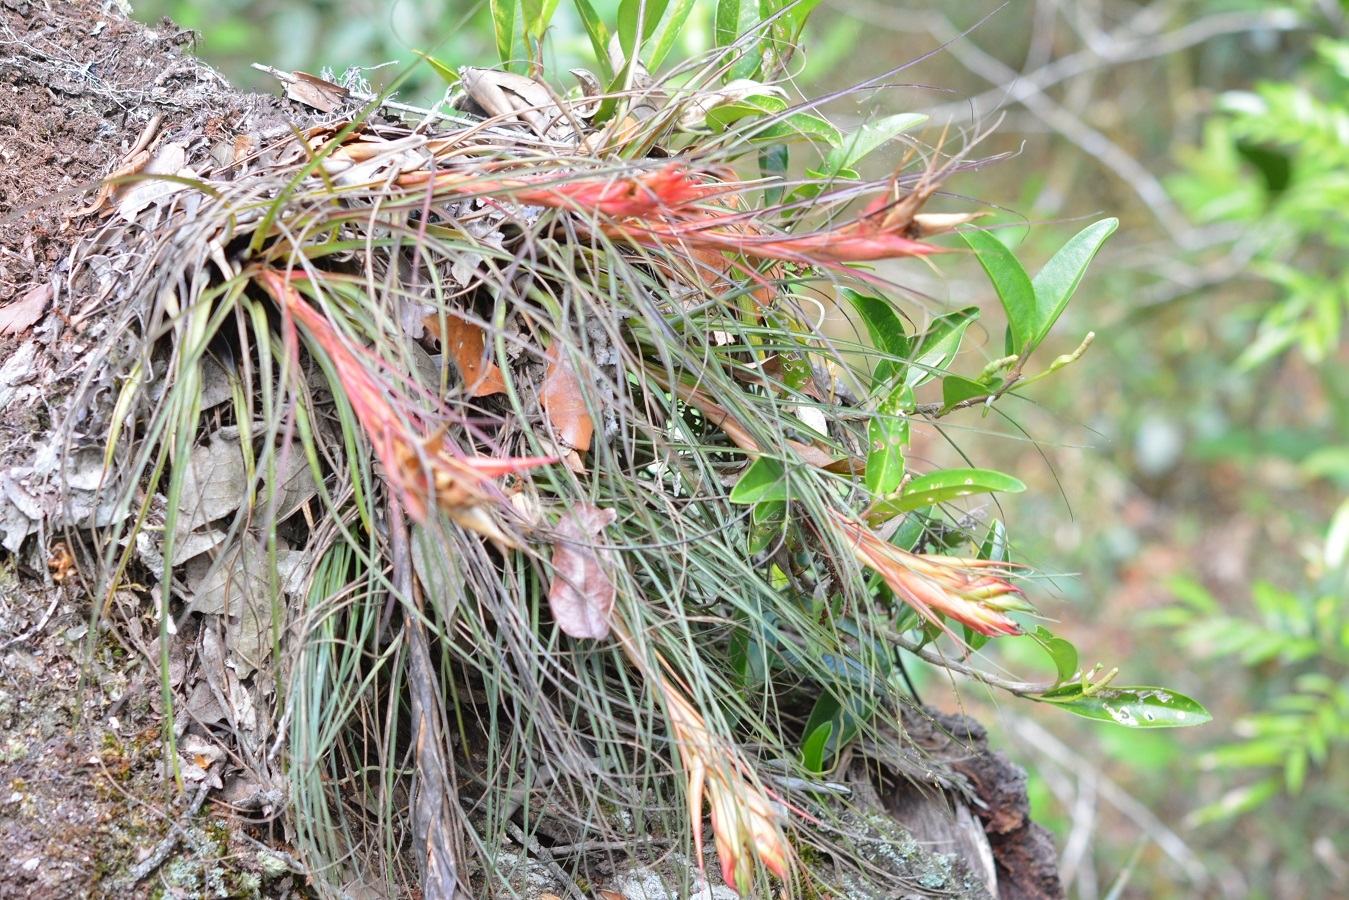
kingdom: Plantae
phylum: Tracheophyta
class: Liliopsida
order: Poales
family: Bromeliaceae
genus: Tillandsia
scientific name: Tillandsia punctulata
